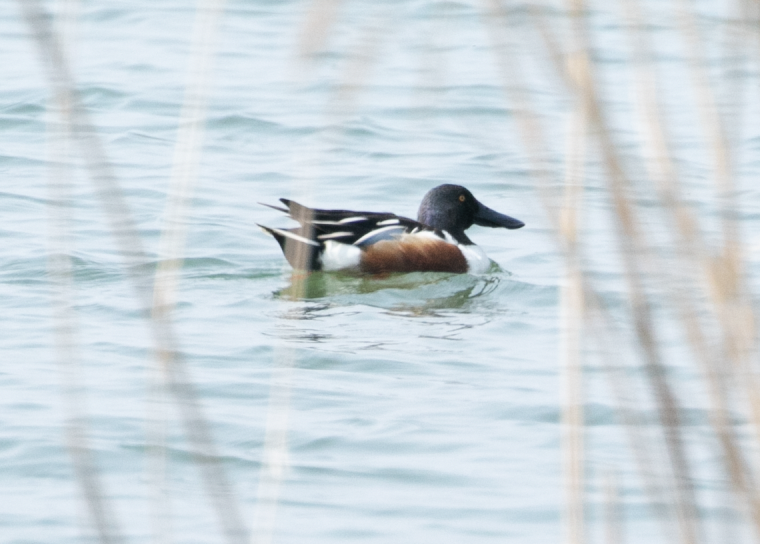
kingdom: Animalia
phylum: Chordata
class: Aves
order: Anseriformes
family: Anatidae
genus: Spatula
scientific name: Spatula clypeata
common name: Northern shoveler
